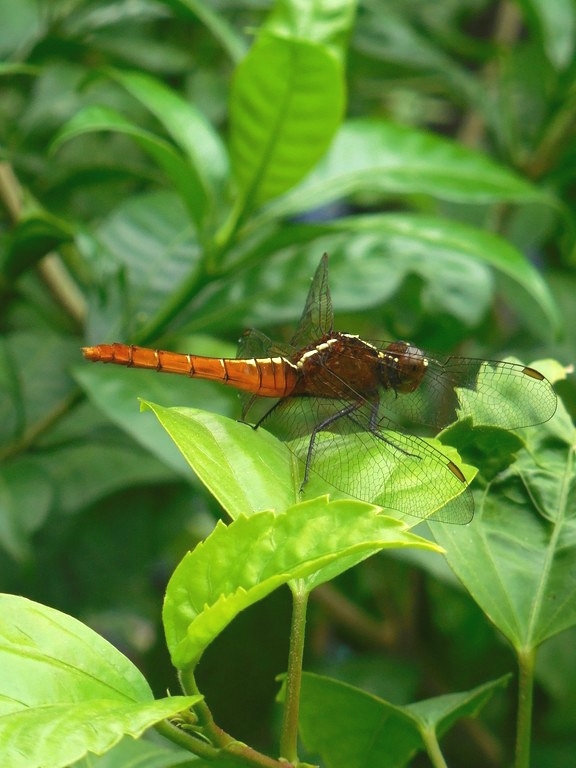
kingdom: Animalia
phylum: Arthropoda
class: Insecta
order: Odonata
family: Libellulidae
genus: Rhodothemis
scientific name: Rhodothemis rufa
